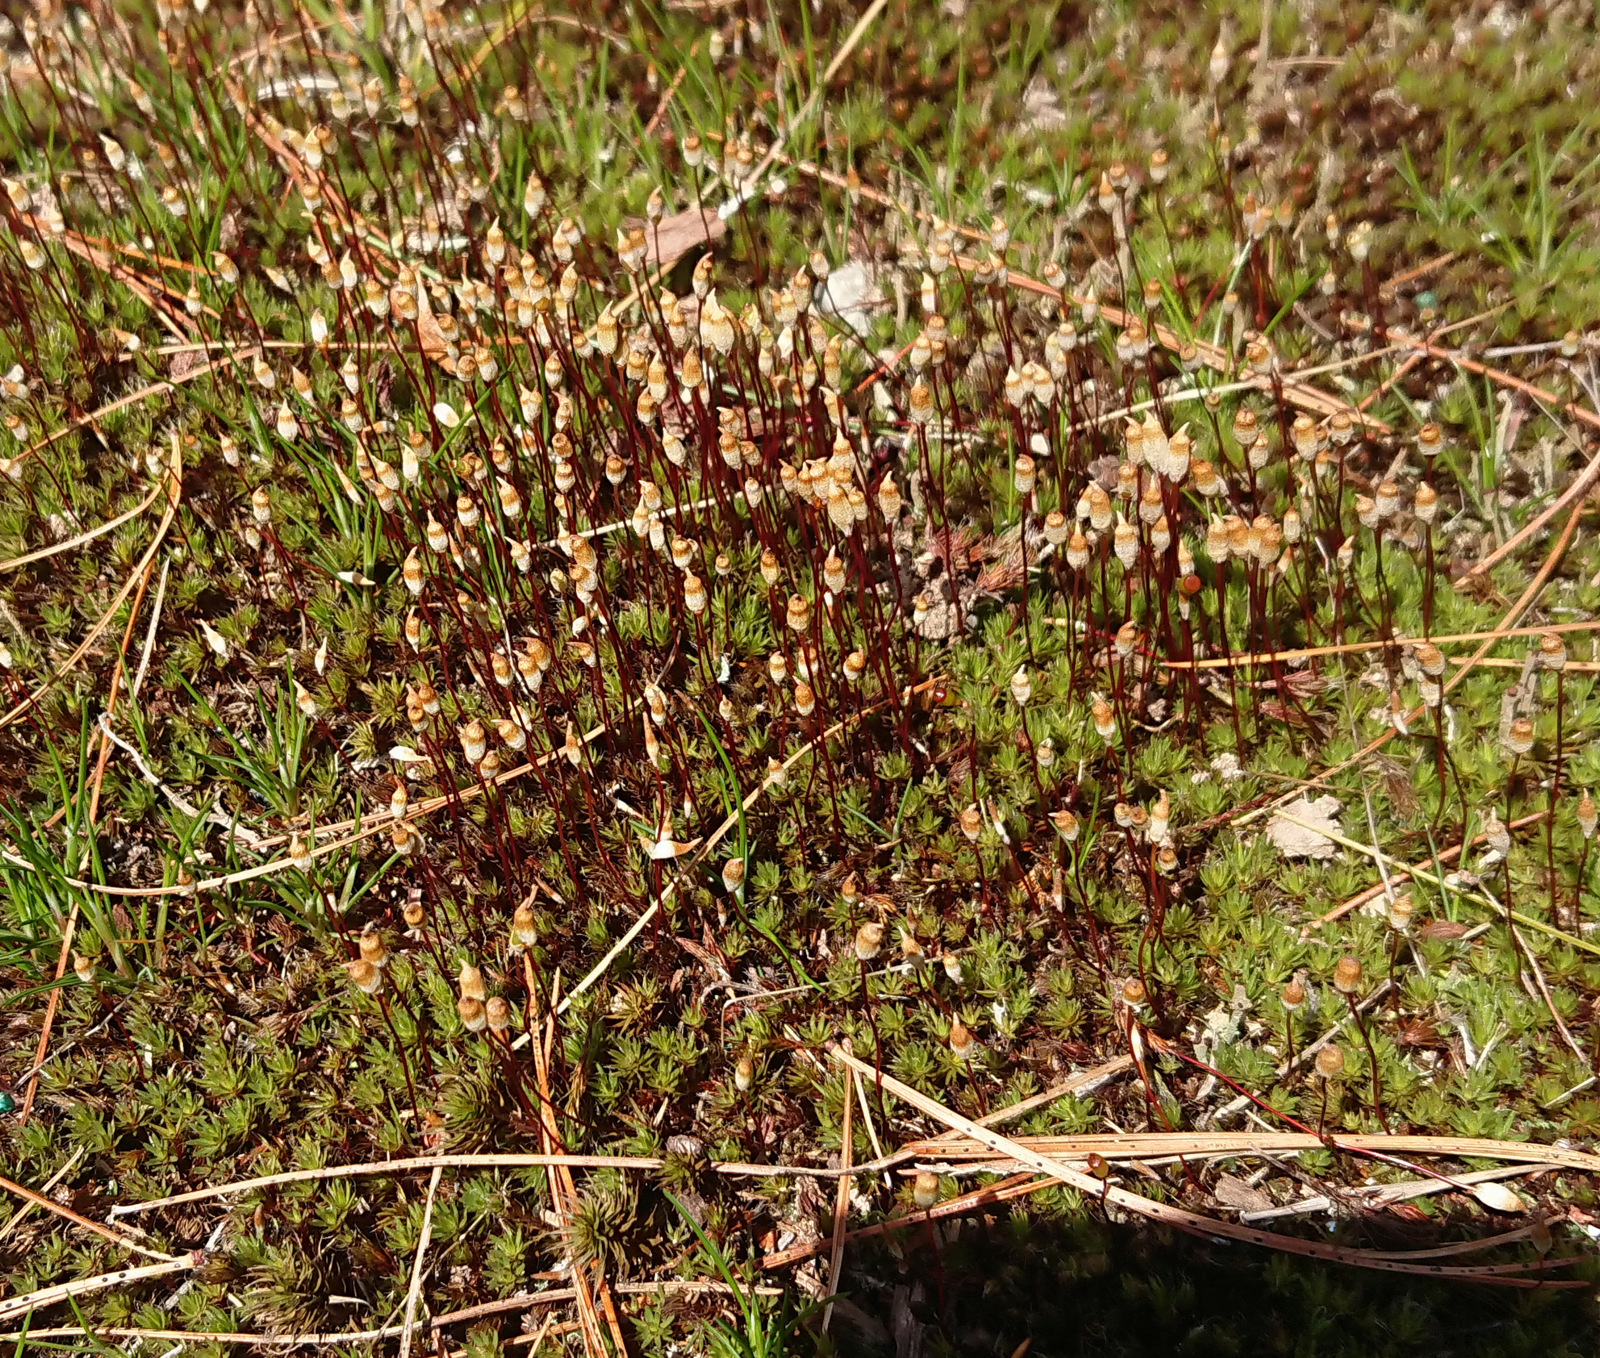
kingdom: Plantae
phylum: Bryophyta
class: Polytrichopsida
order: Polytrichales
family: Polytrichaceae
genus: Polytrichum
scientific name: Polytrichum piliferum
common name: Bristly haircap
